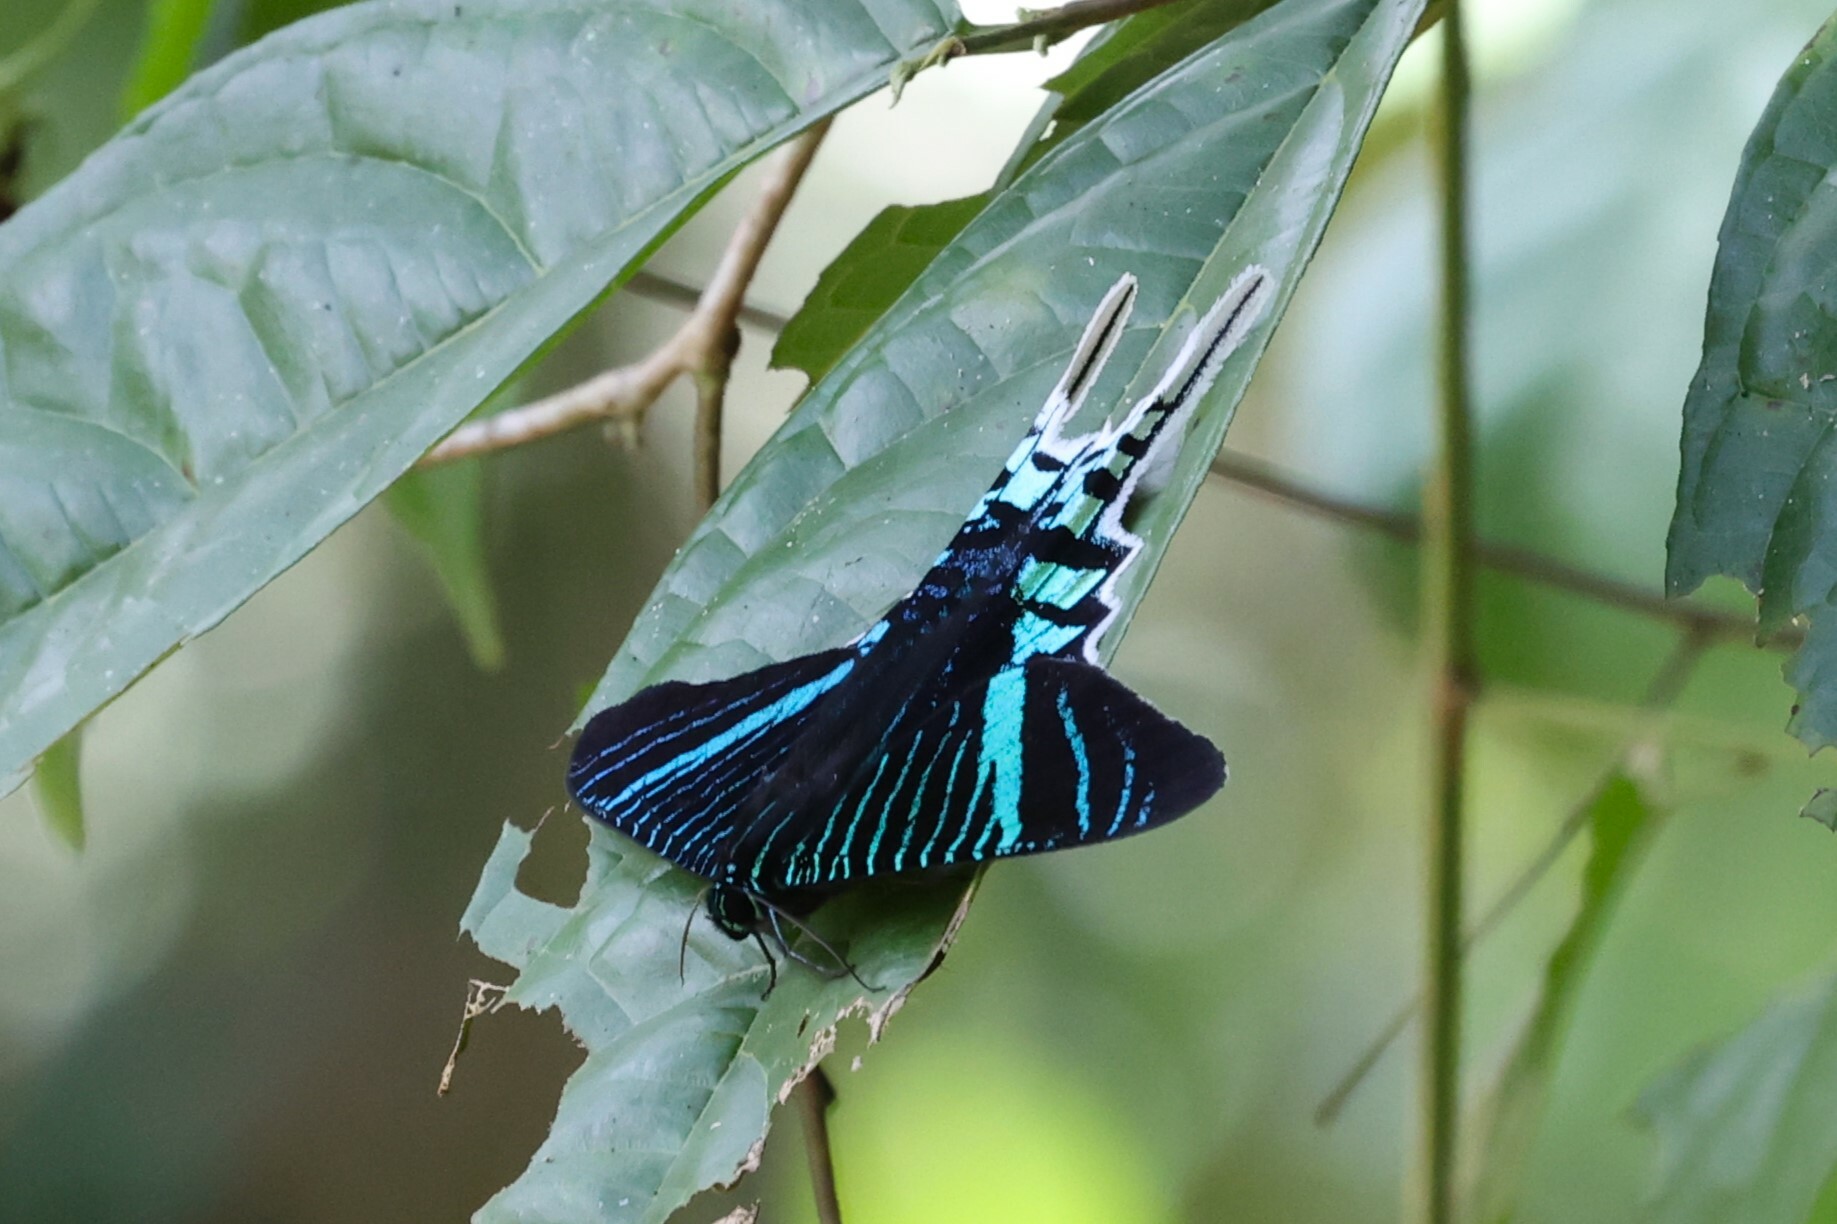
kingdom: Animalia
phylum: Arthropoda
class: Insecta
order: Lepidoptera
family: Uraniidae
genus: Urania
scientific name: Urania leilus
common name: Peacock moth
